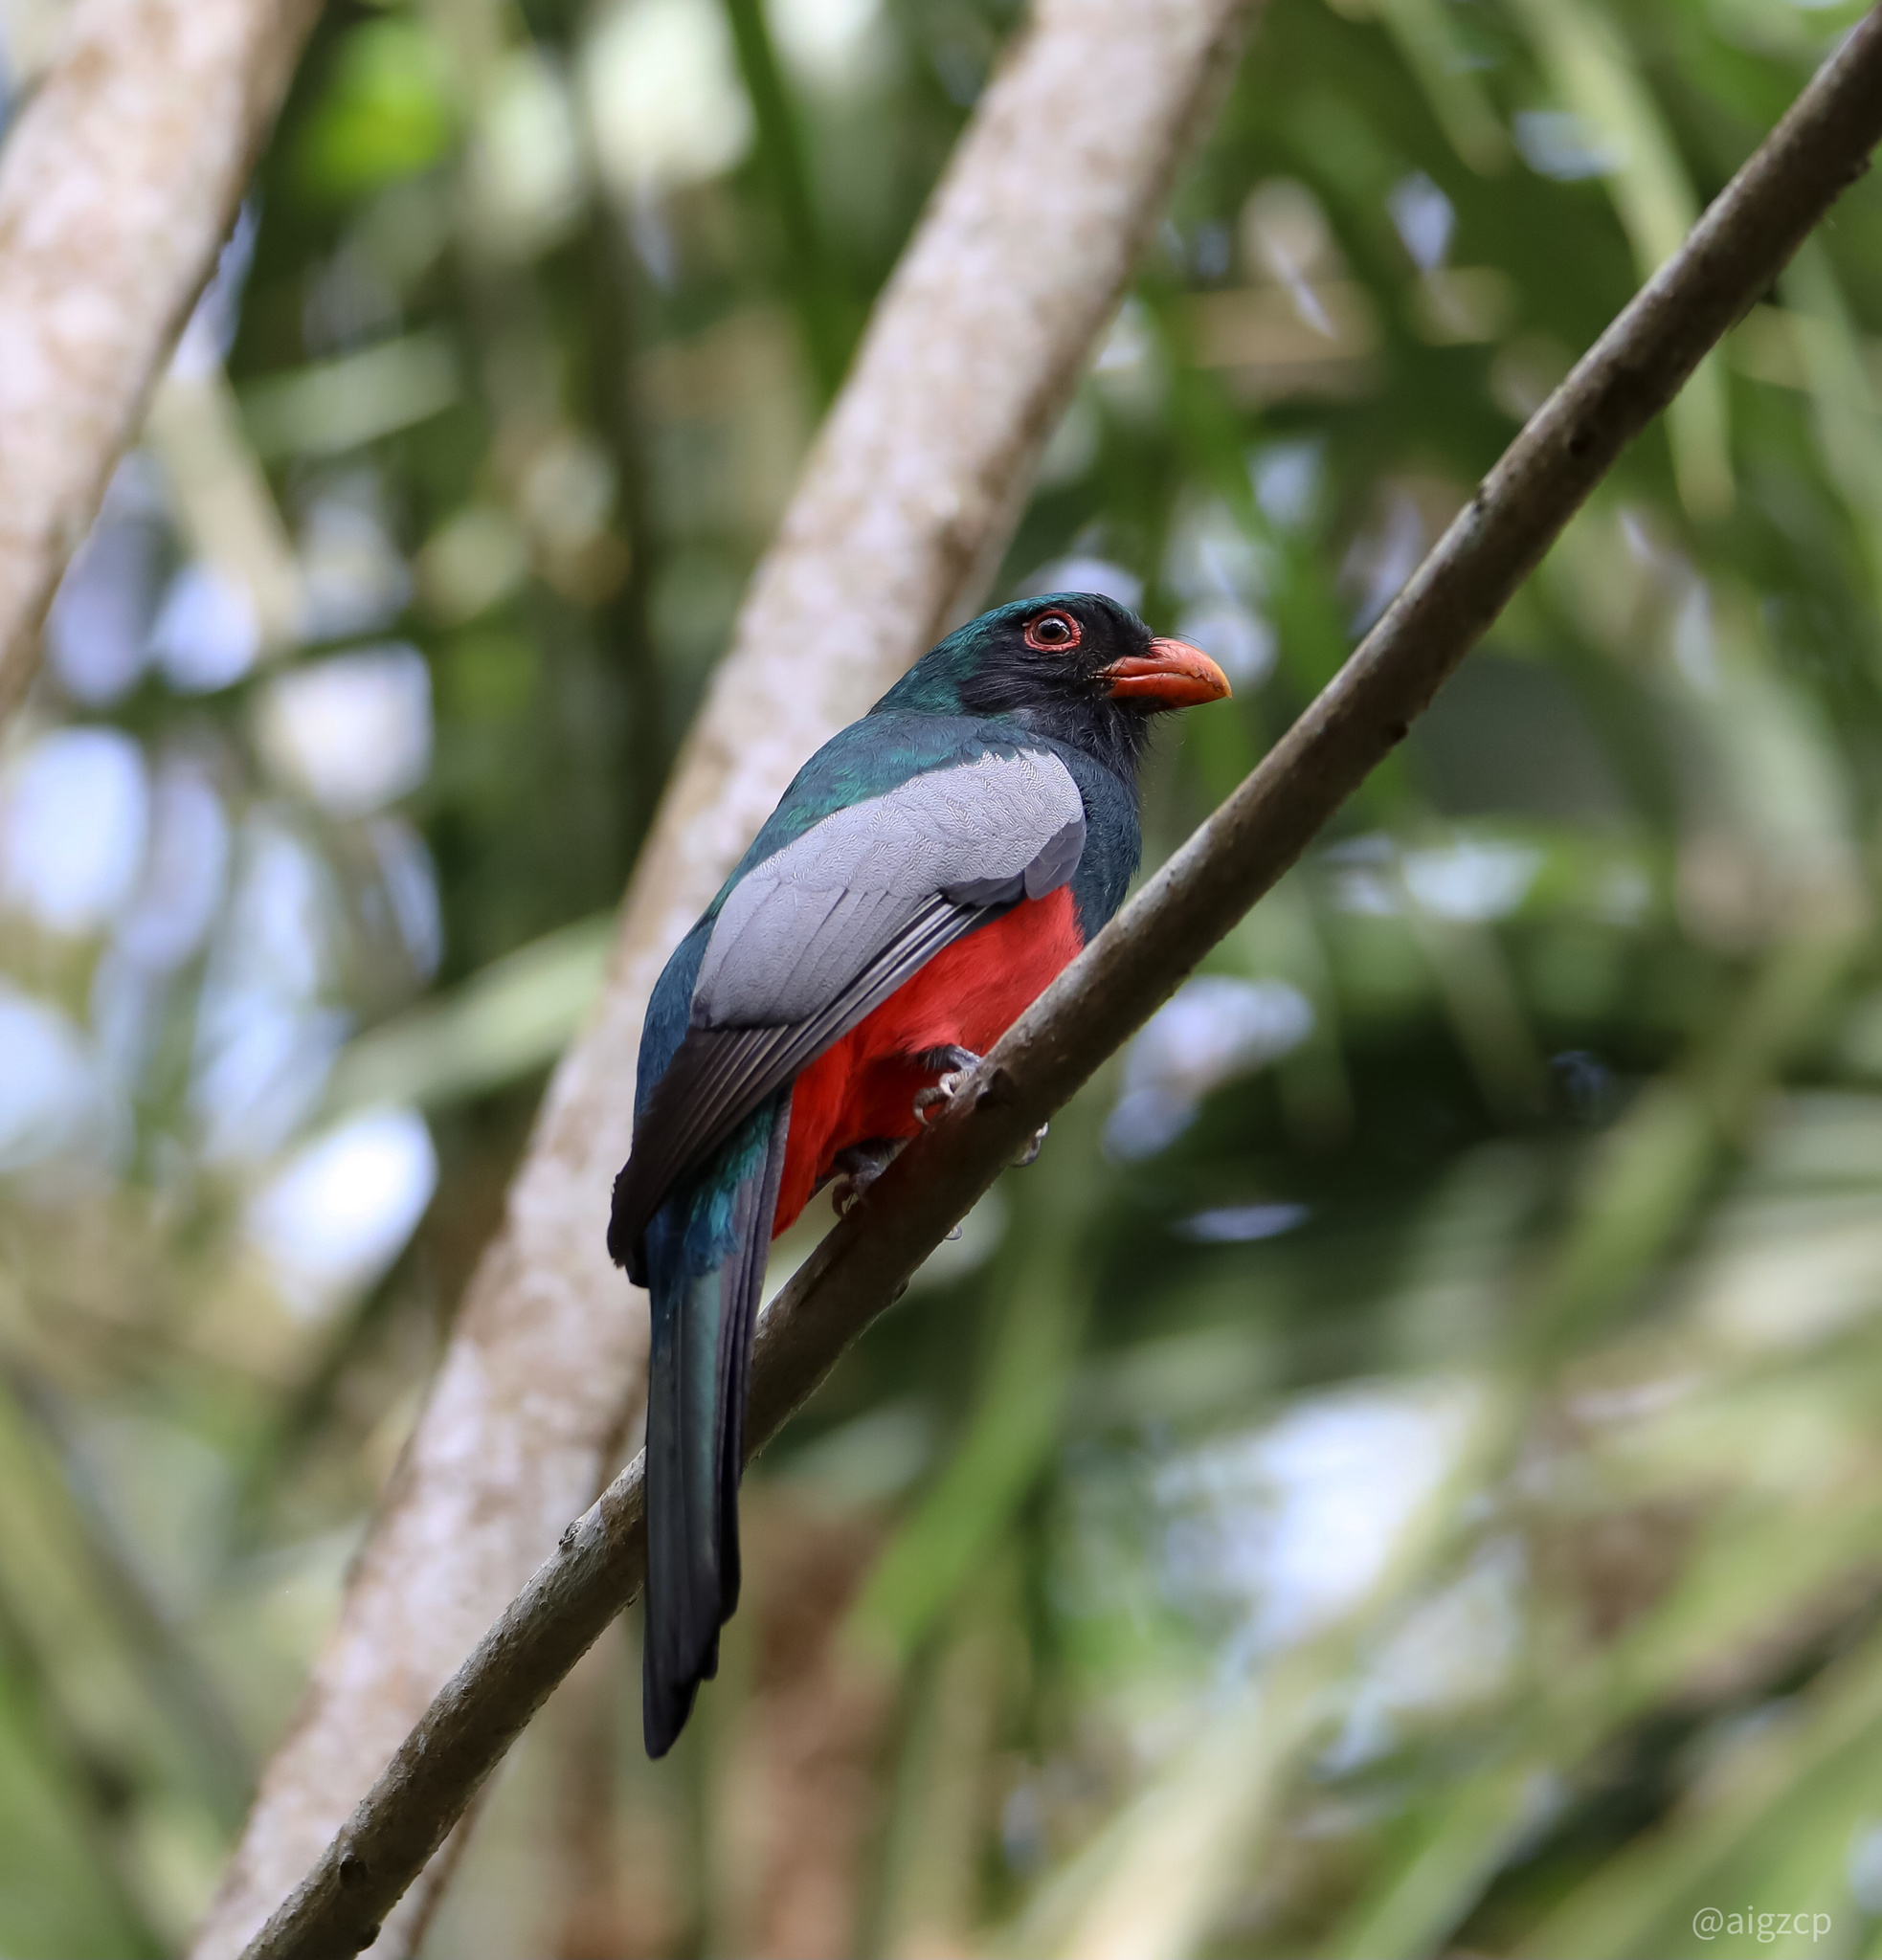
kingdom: Animalia
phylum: Chordata
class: Aves
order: Trogoniformes
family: Trogonidae
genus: Trogon
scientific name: Trogon massena
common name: Slaty-tailed trogon
